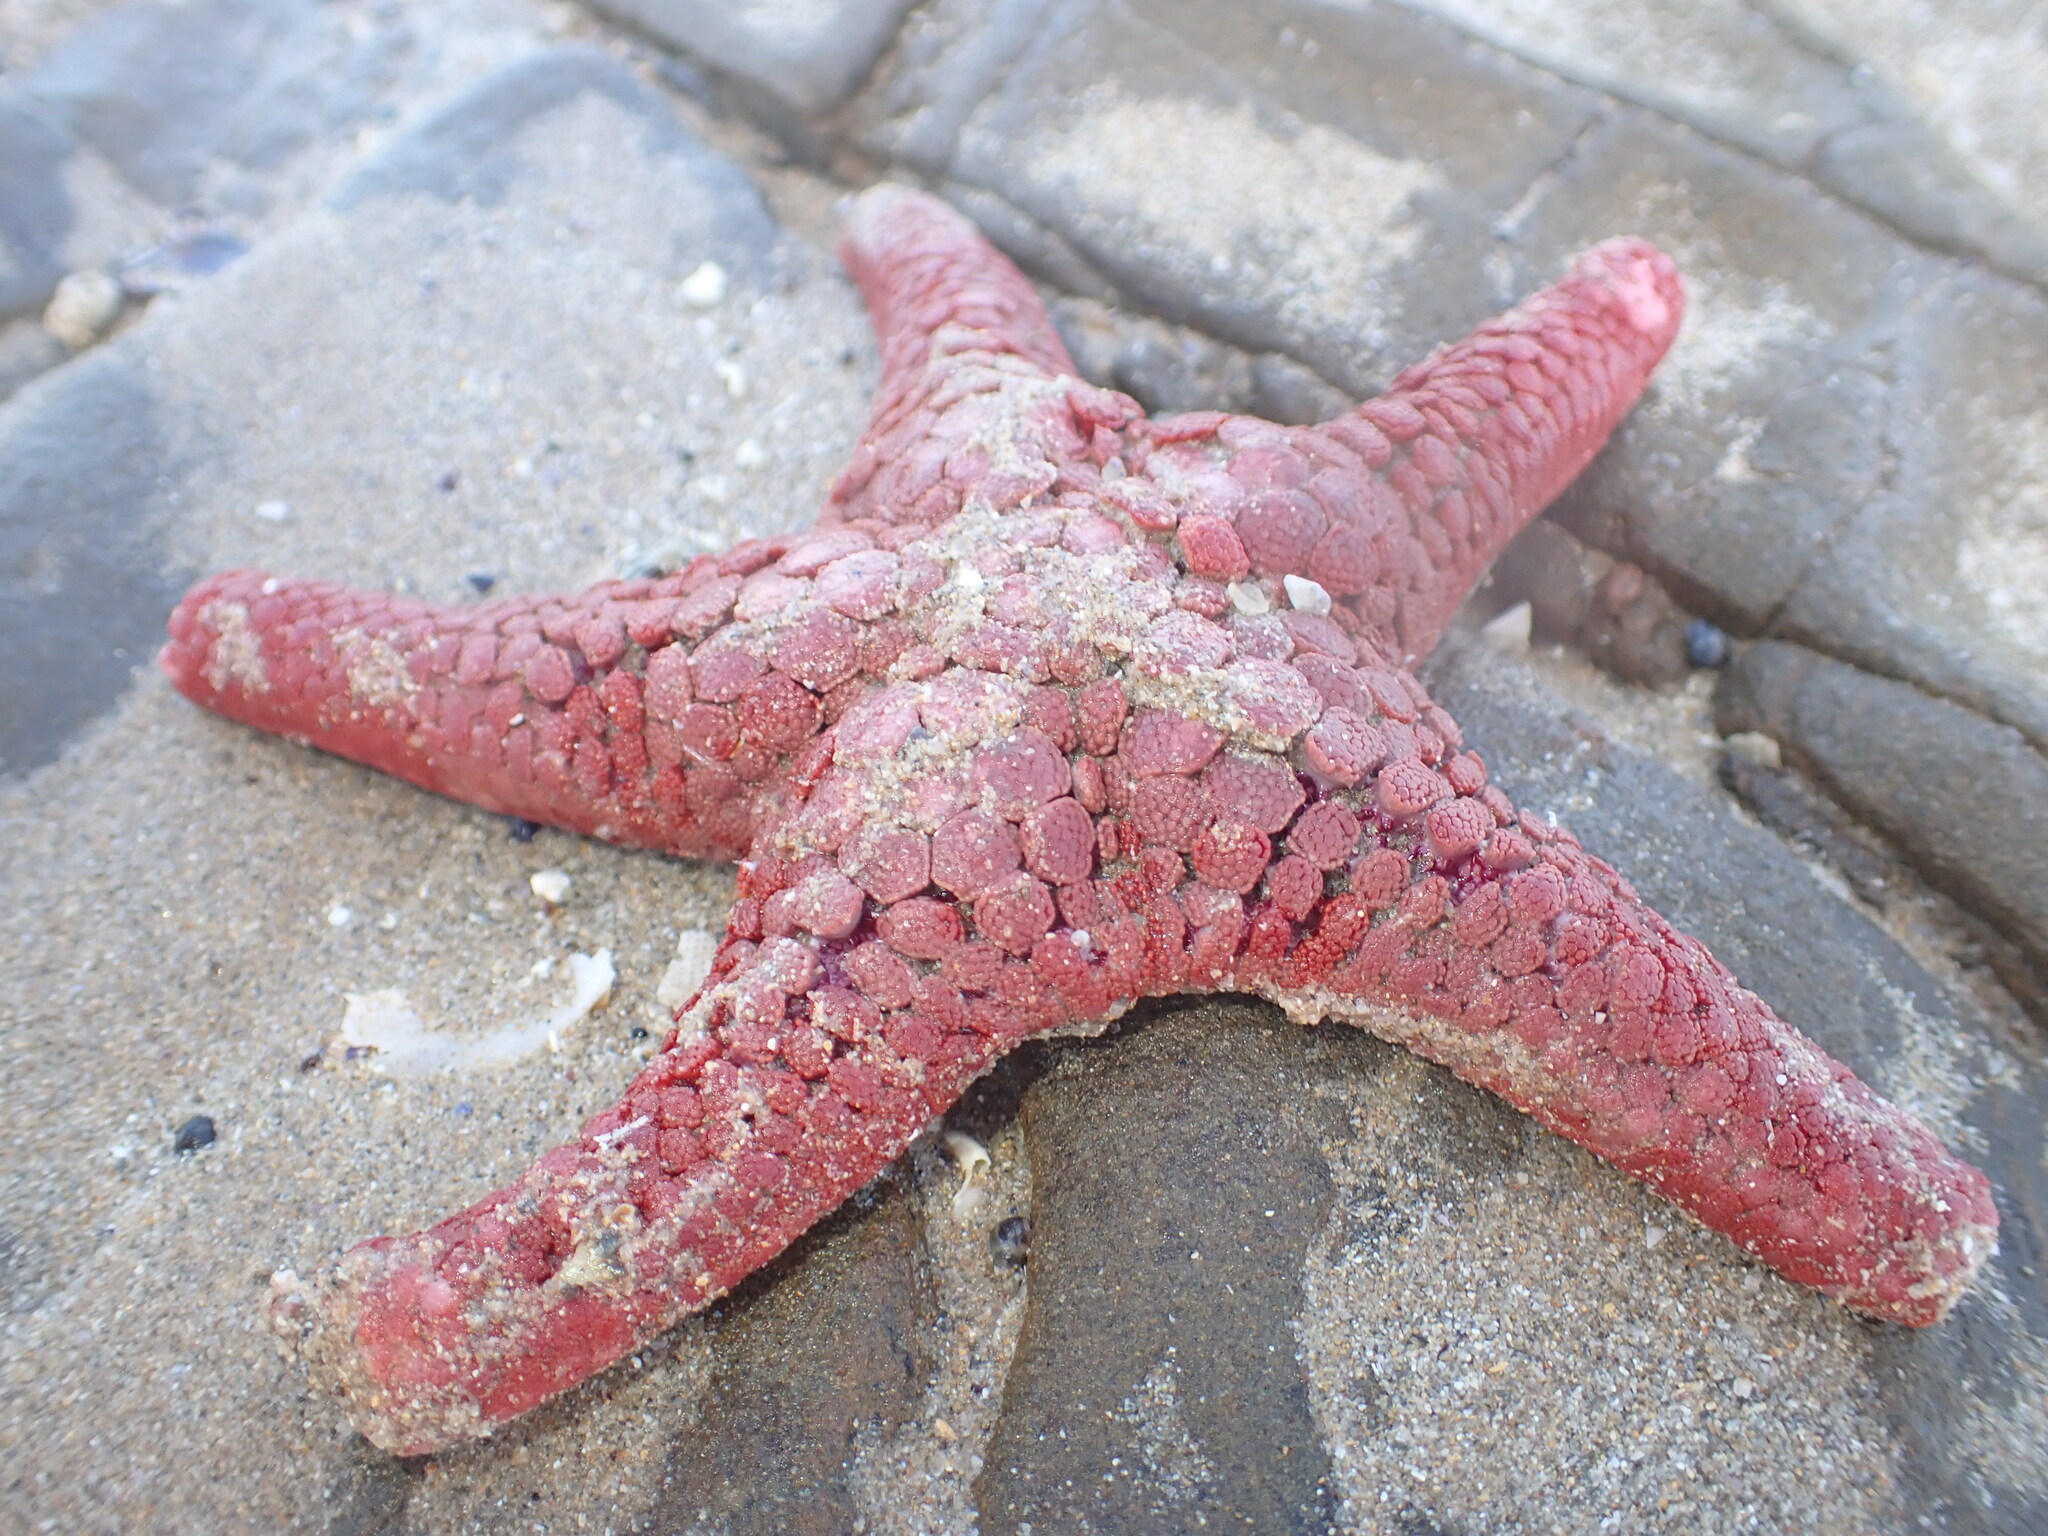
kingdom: Animalia
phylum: Echinodermata
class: Asteroidea
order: Valvatida
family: Goniasteridae
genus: Nectria
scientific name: Nectria ocellata
